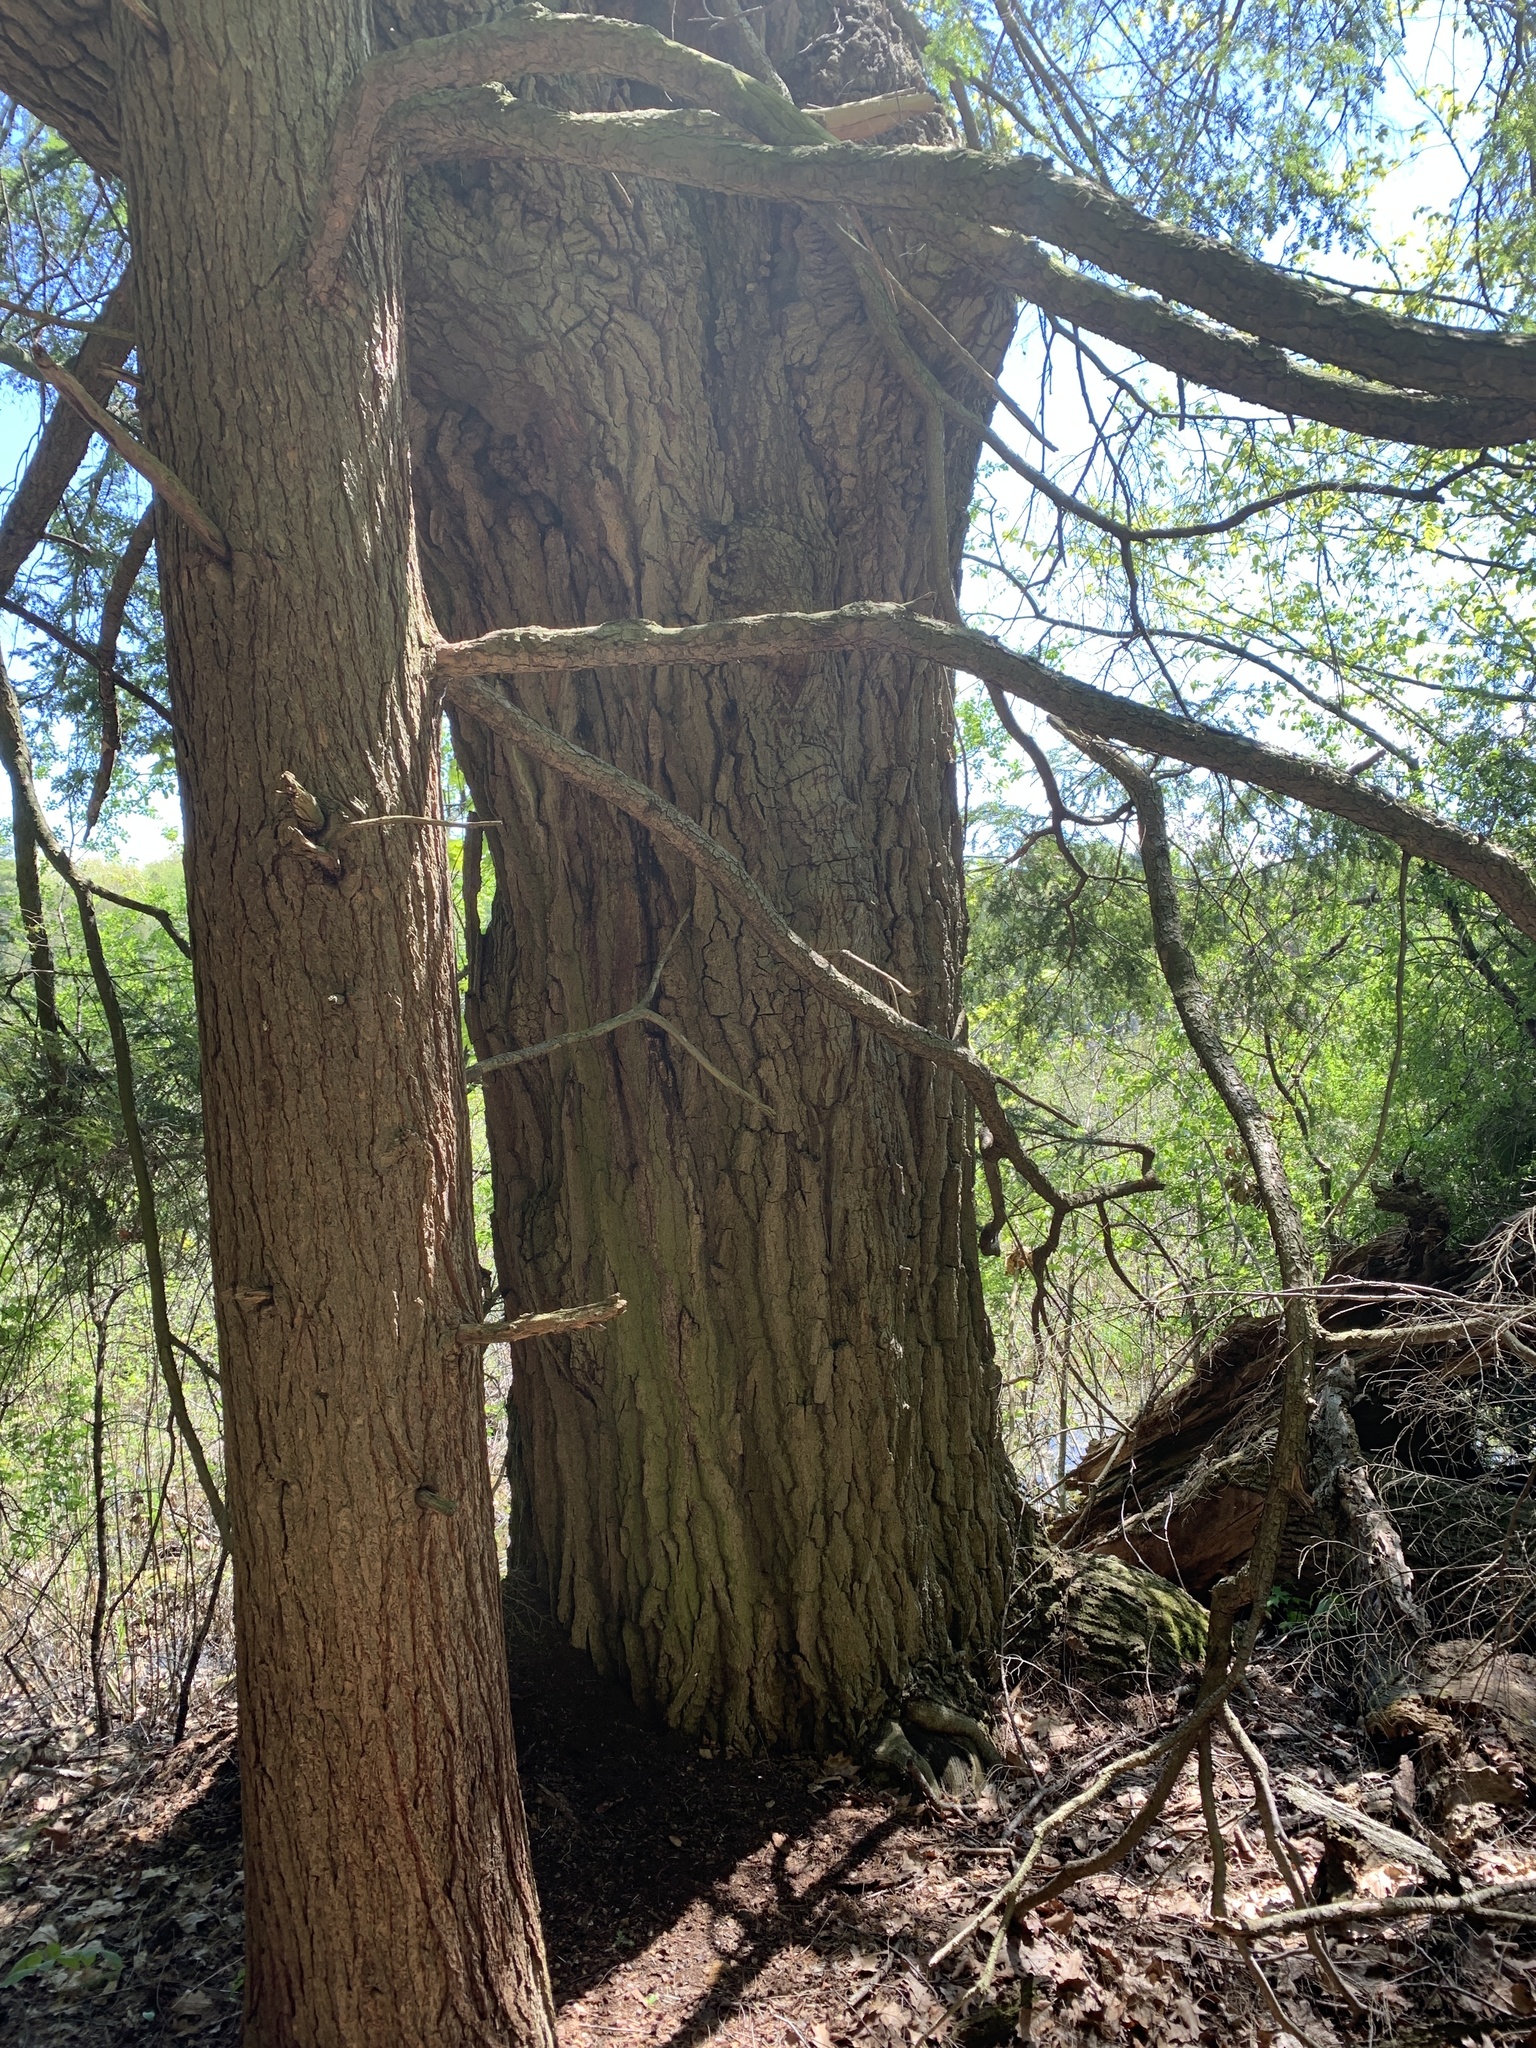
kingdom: Plantae
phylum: Tracheophyta
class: Magnoliopsida
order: Fagales
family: Fagaceae
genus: Quercus
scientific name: Quercus rubra
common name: Red oak
